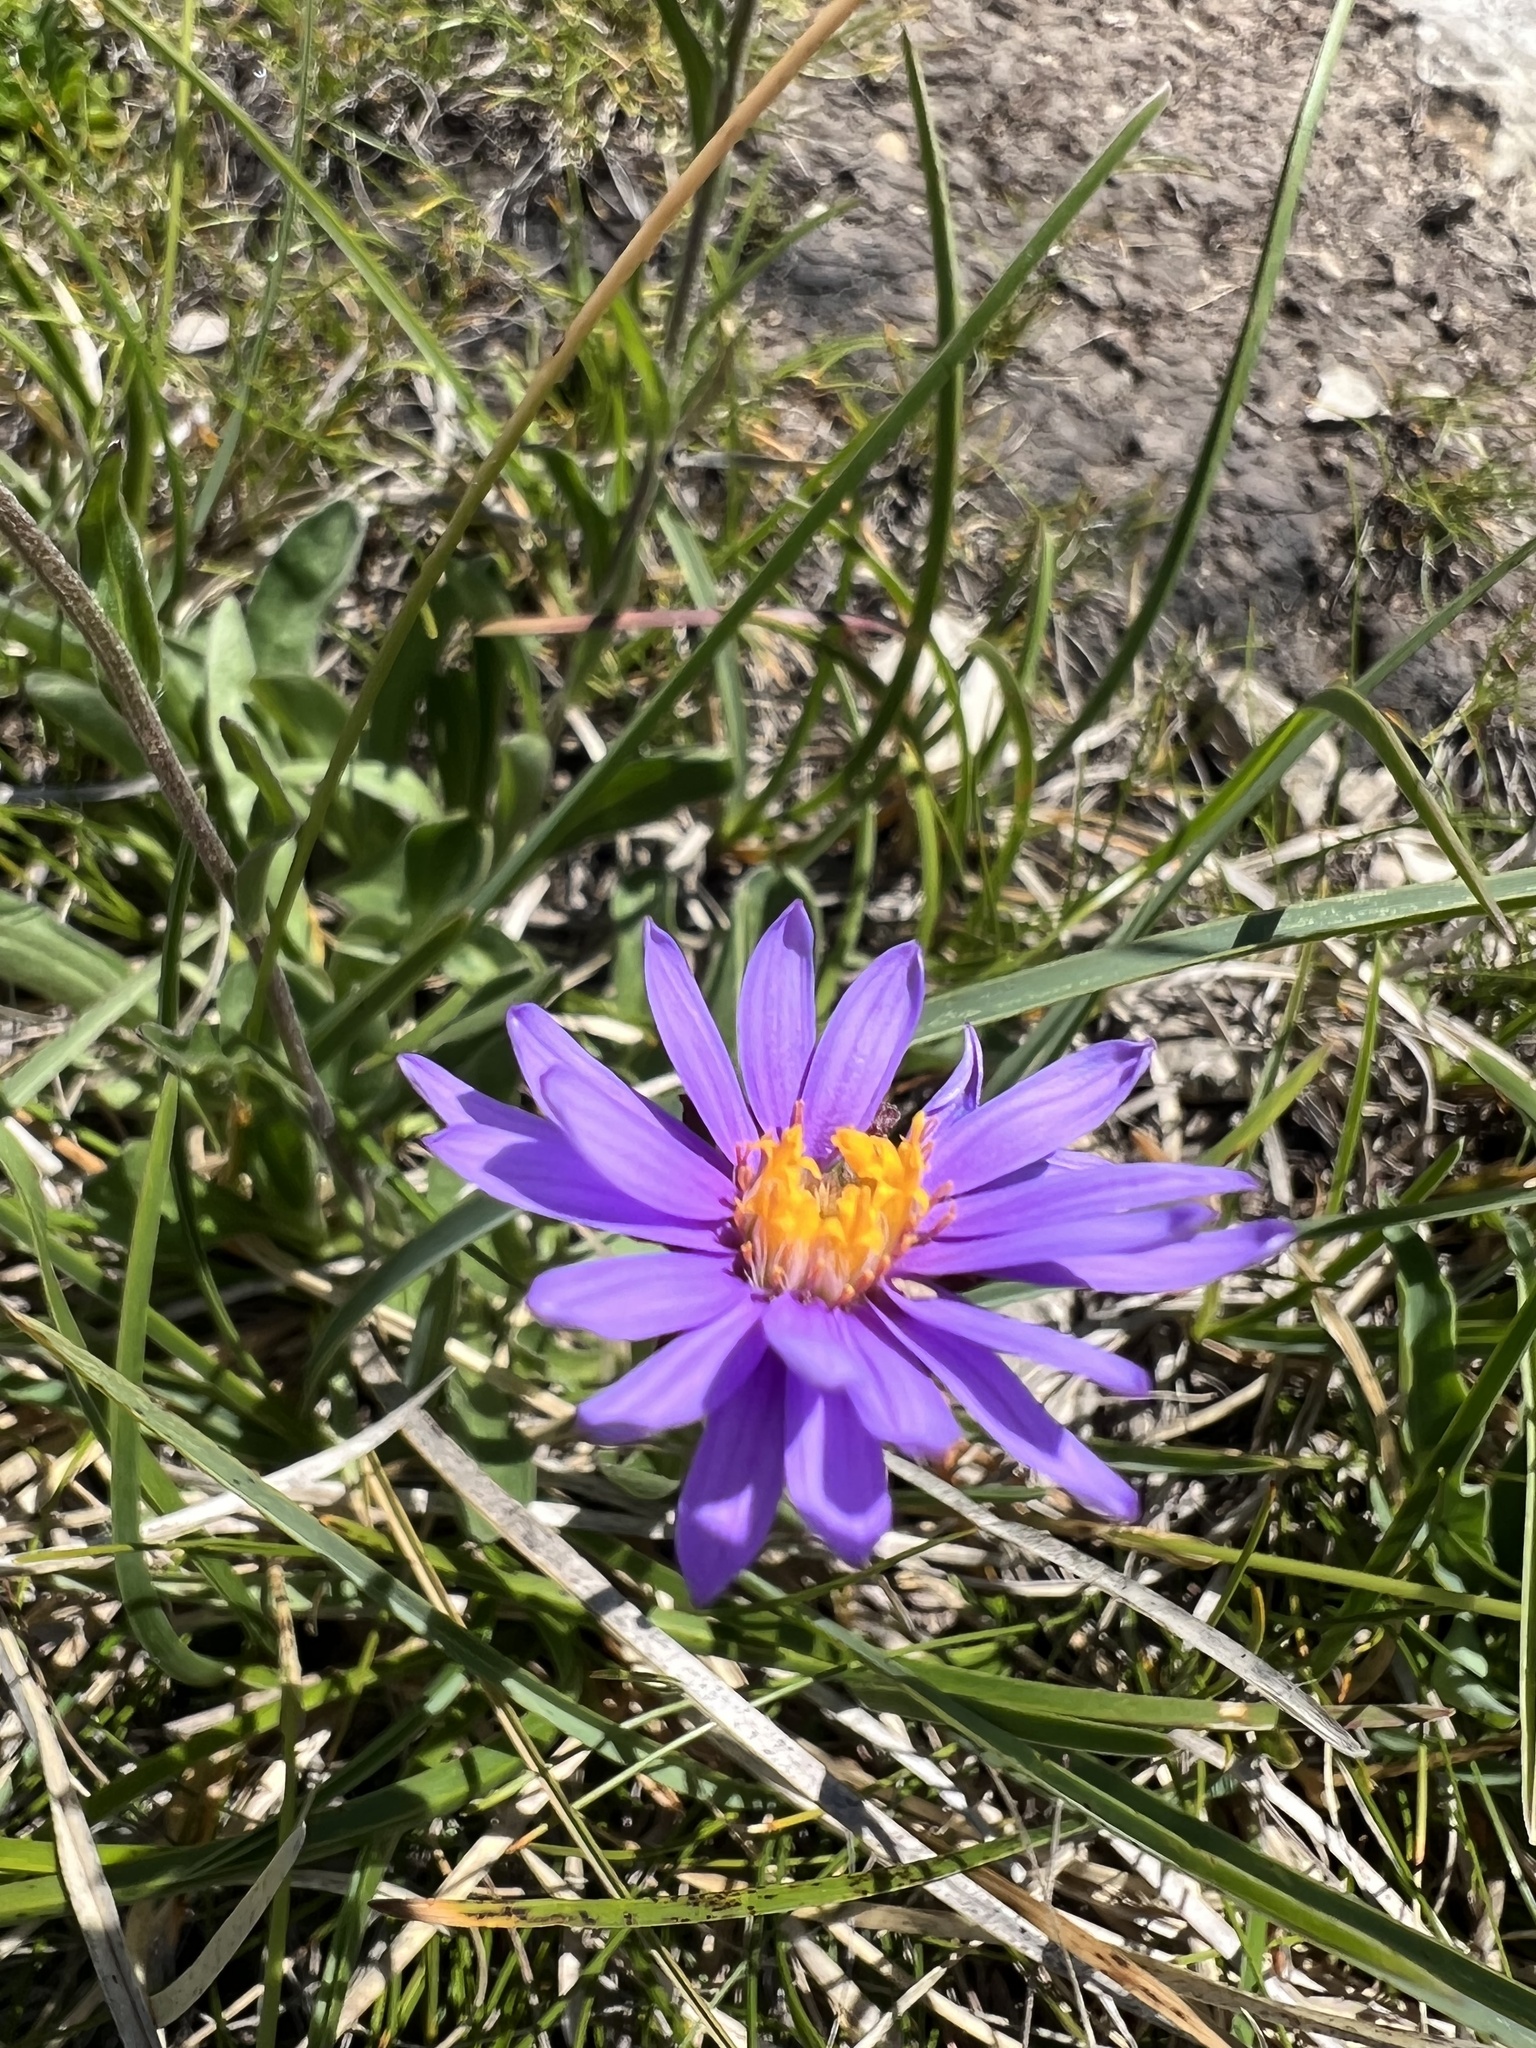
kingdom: Plantae
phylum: Tracheophyta
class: Magnoliopsida
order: Asterales
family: Asteraceae
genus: Aster
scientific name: Aster alpinus
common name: Alpine aster
